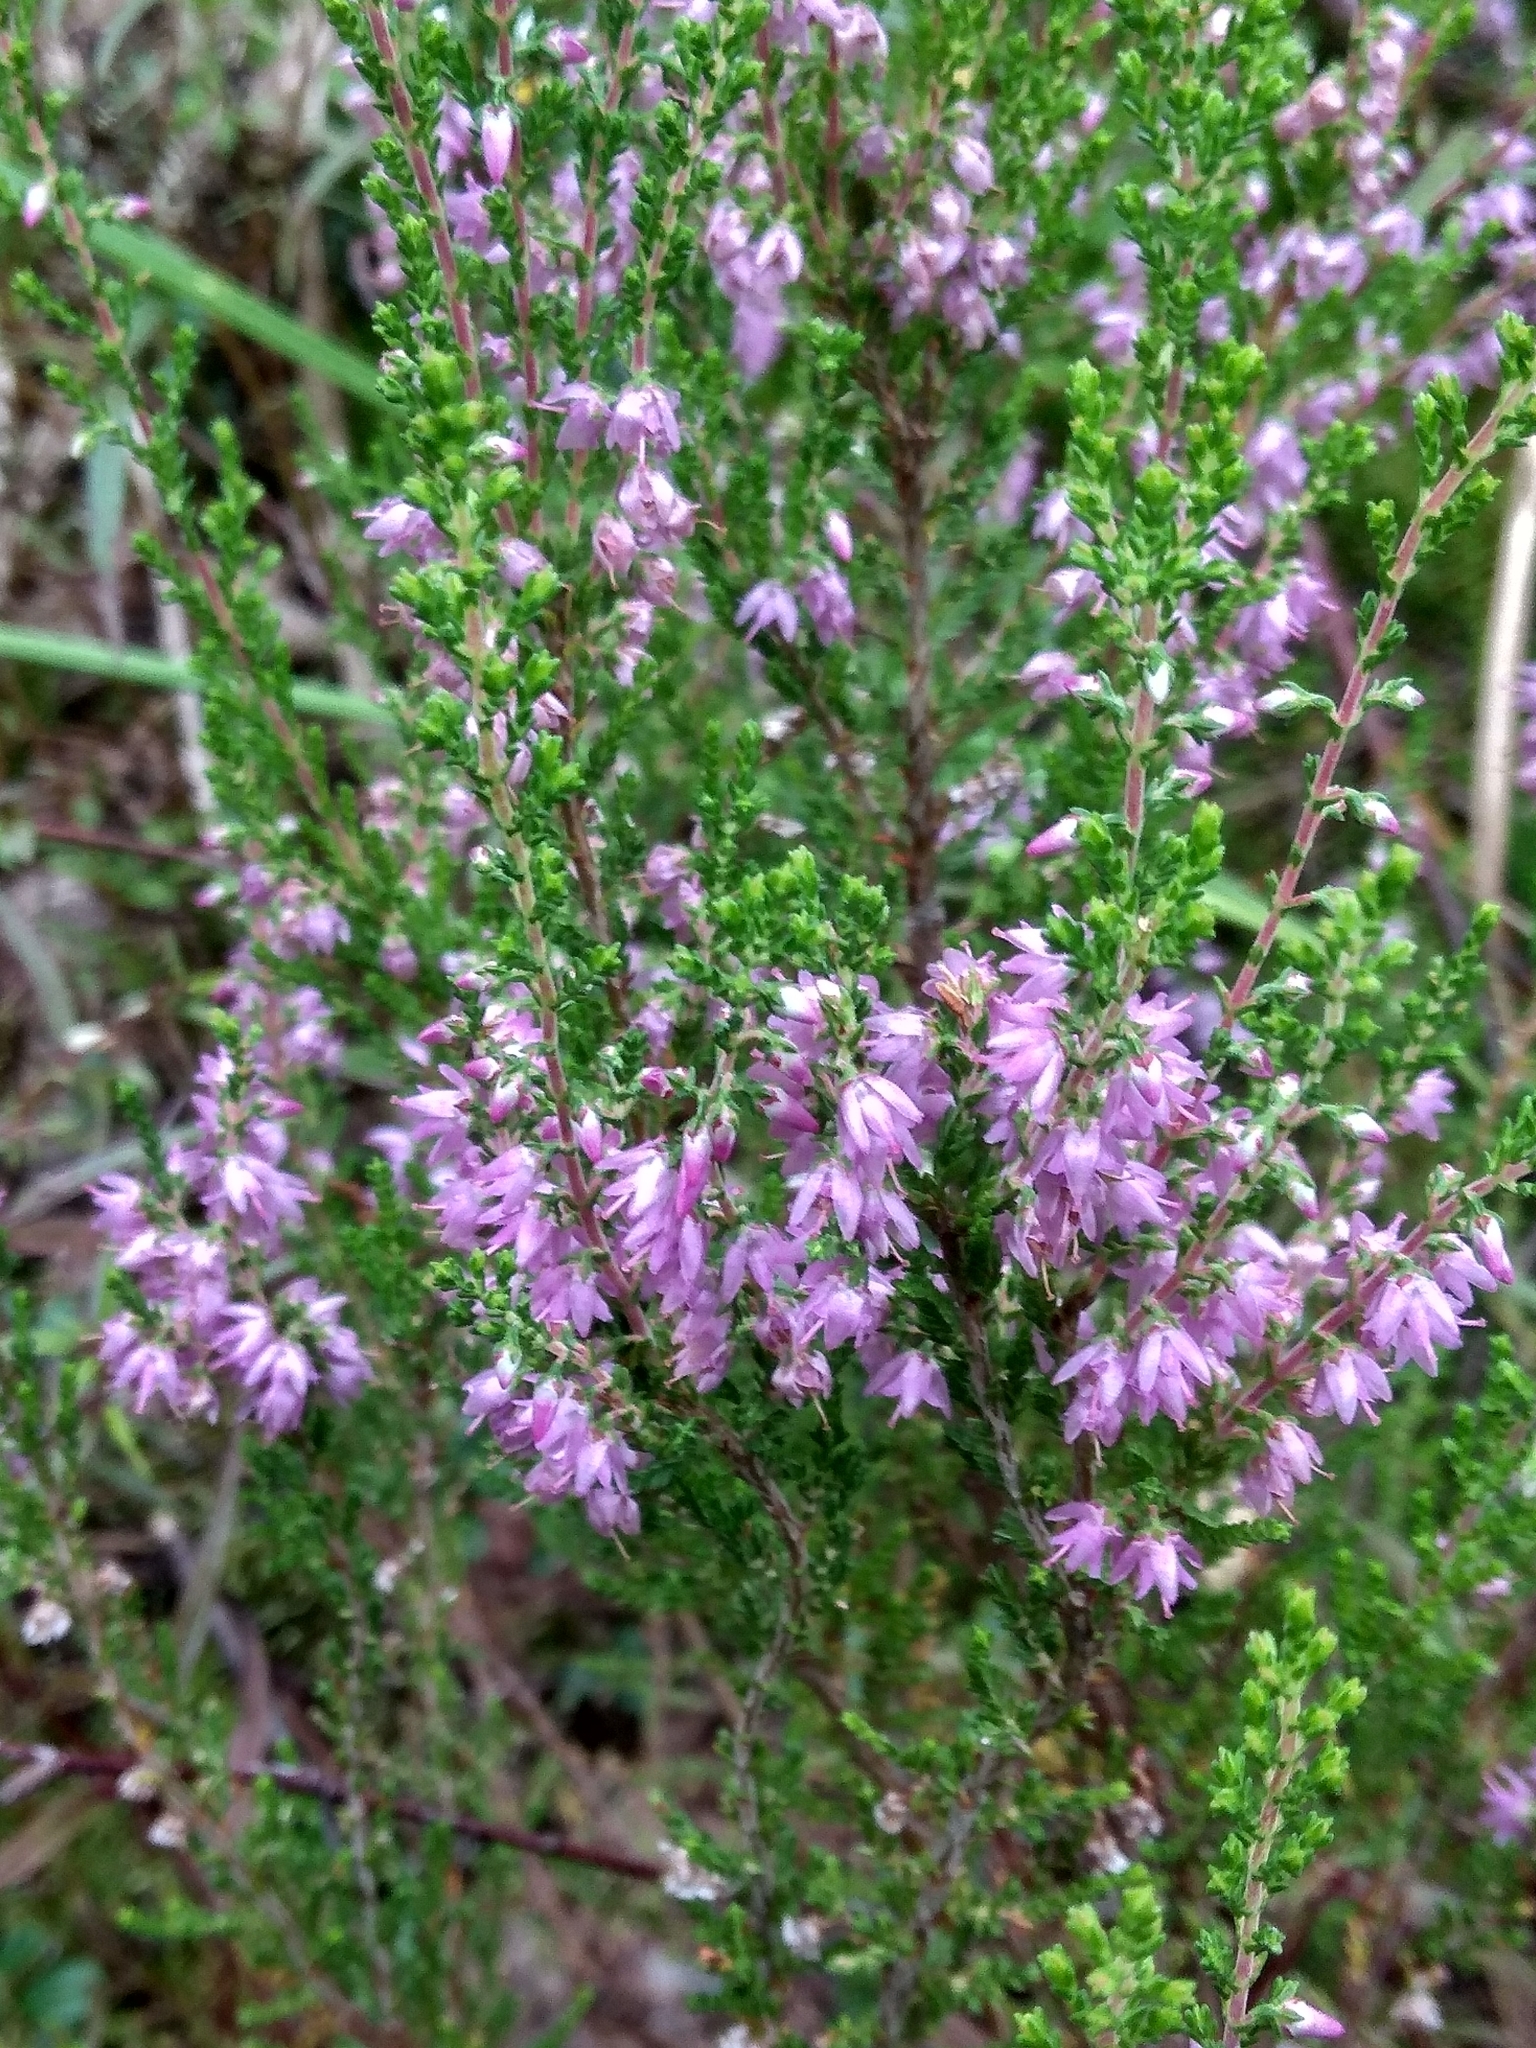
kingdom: Plantae
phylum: Tracheophyta
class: Magnoliopsida
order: Ericales
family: Ericaceae
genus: Calluna
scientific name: Calluna vulgaris
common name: Heather
